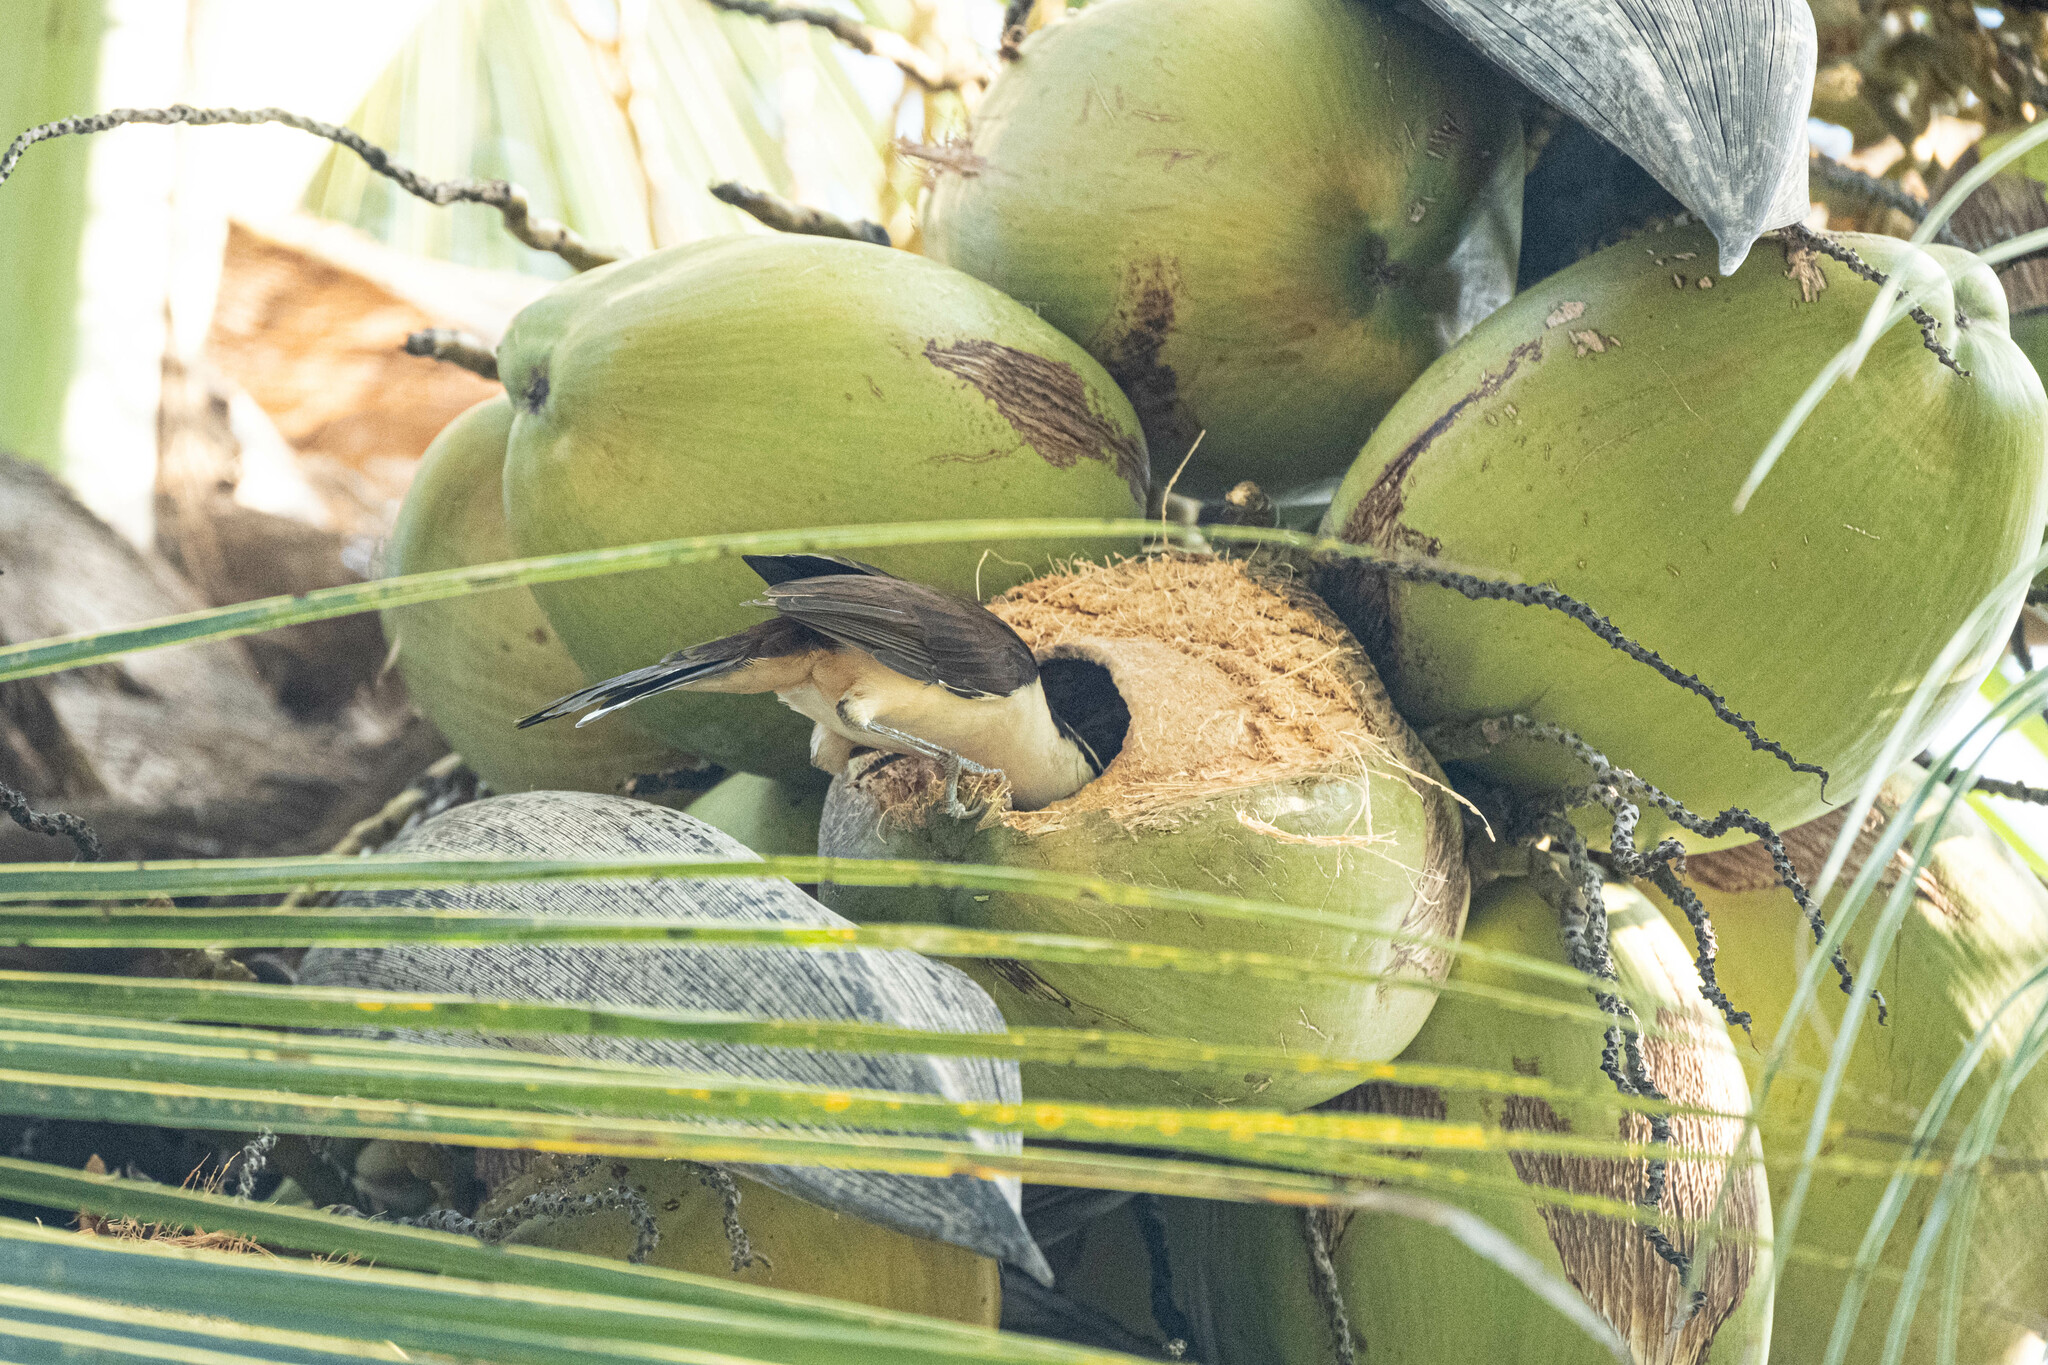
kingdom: Animalia
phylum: Chordata
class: Aves
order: Passeriformes
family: Troglodytidae
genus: Campylorhynchus
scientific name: Campylorhynchus griseus
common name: Bicolored wren
